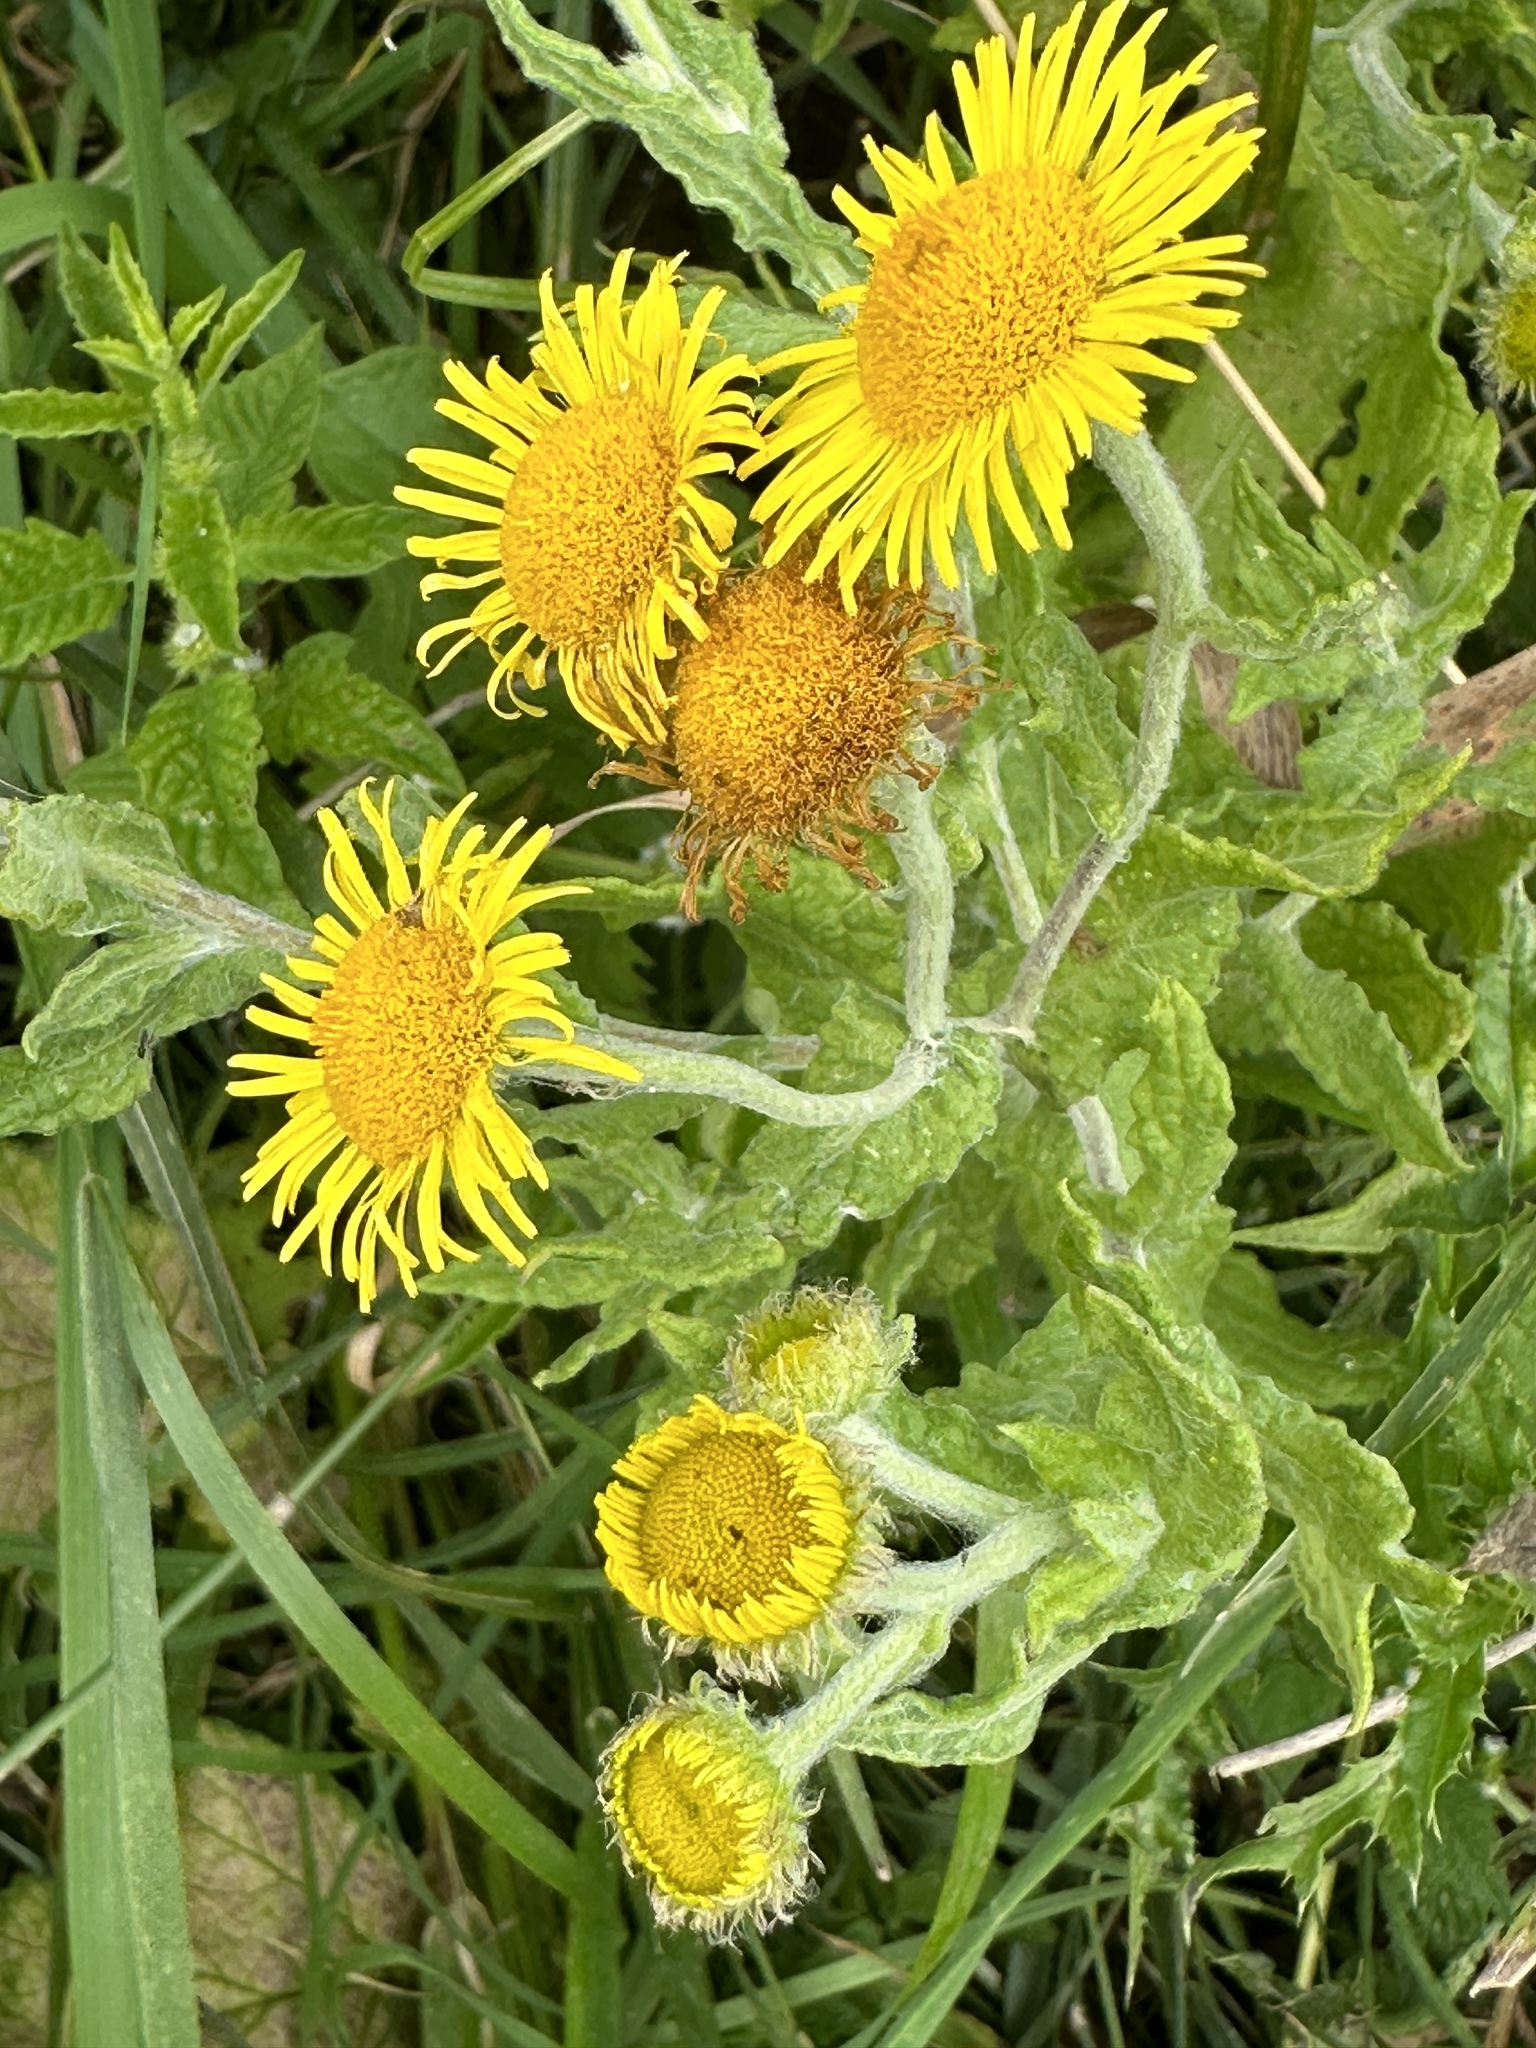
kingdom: Plantae
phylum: Tracheophyta
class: Magnoliopsida
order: Asterales
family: Asteraceae
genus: Pulicaria
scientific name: Pulicaria dysenterica
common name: Common fleabane
